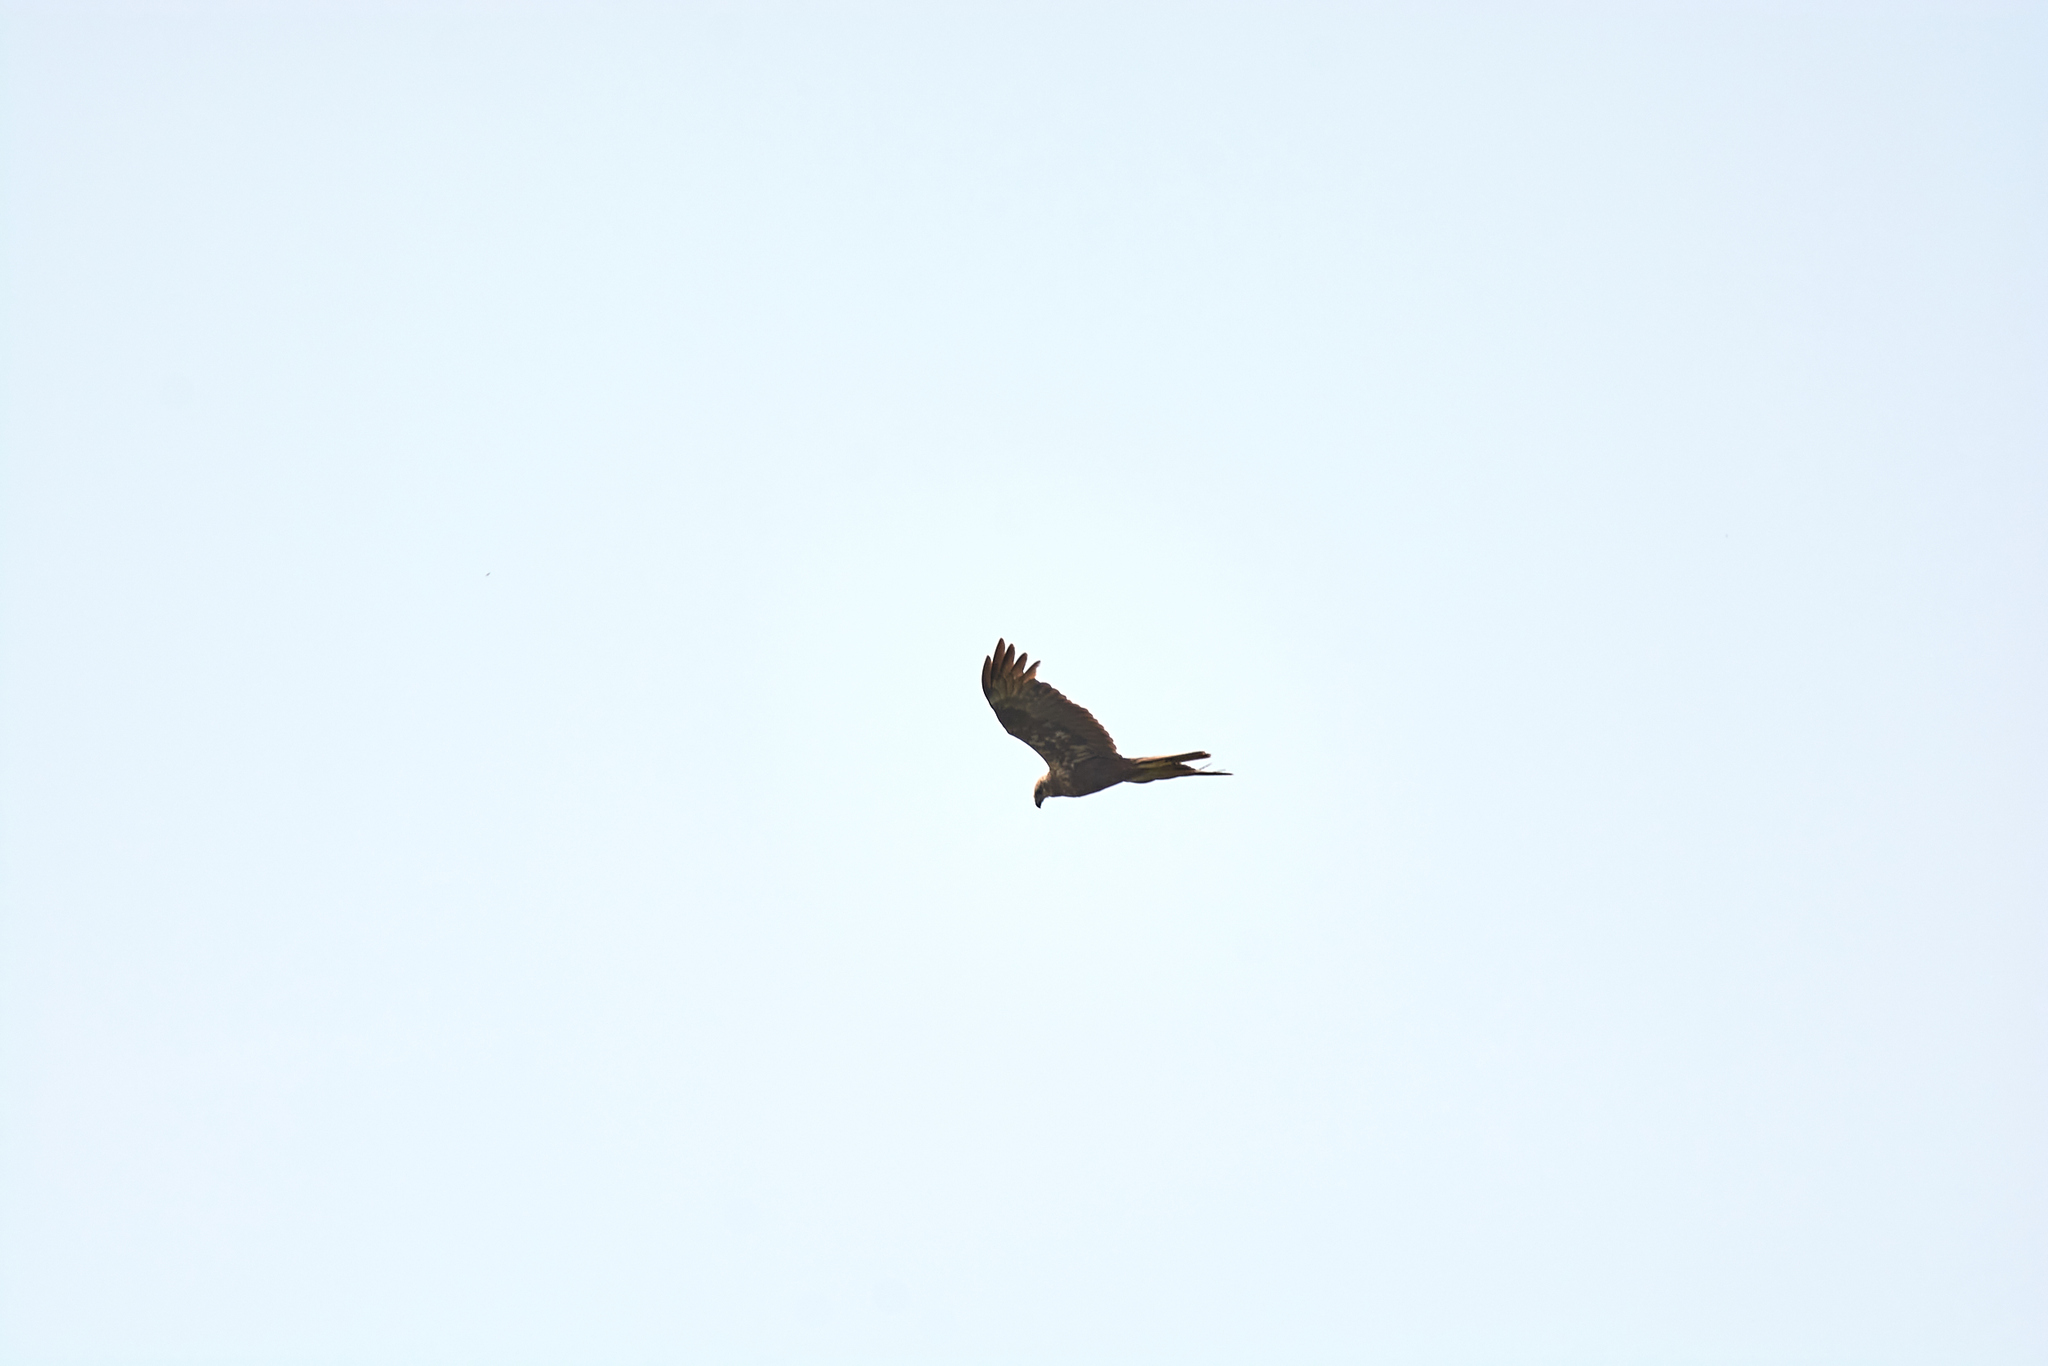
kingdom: Animalia
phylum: Chordata
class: Aves
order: Accipitriformes
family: Accipitridae
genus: Circus
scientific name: Circus aeruginosus
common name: Western marsh harrier
